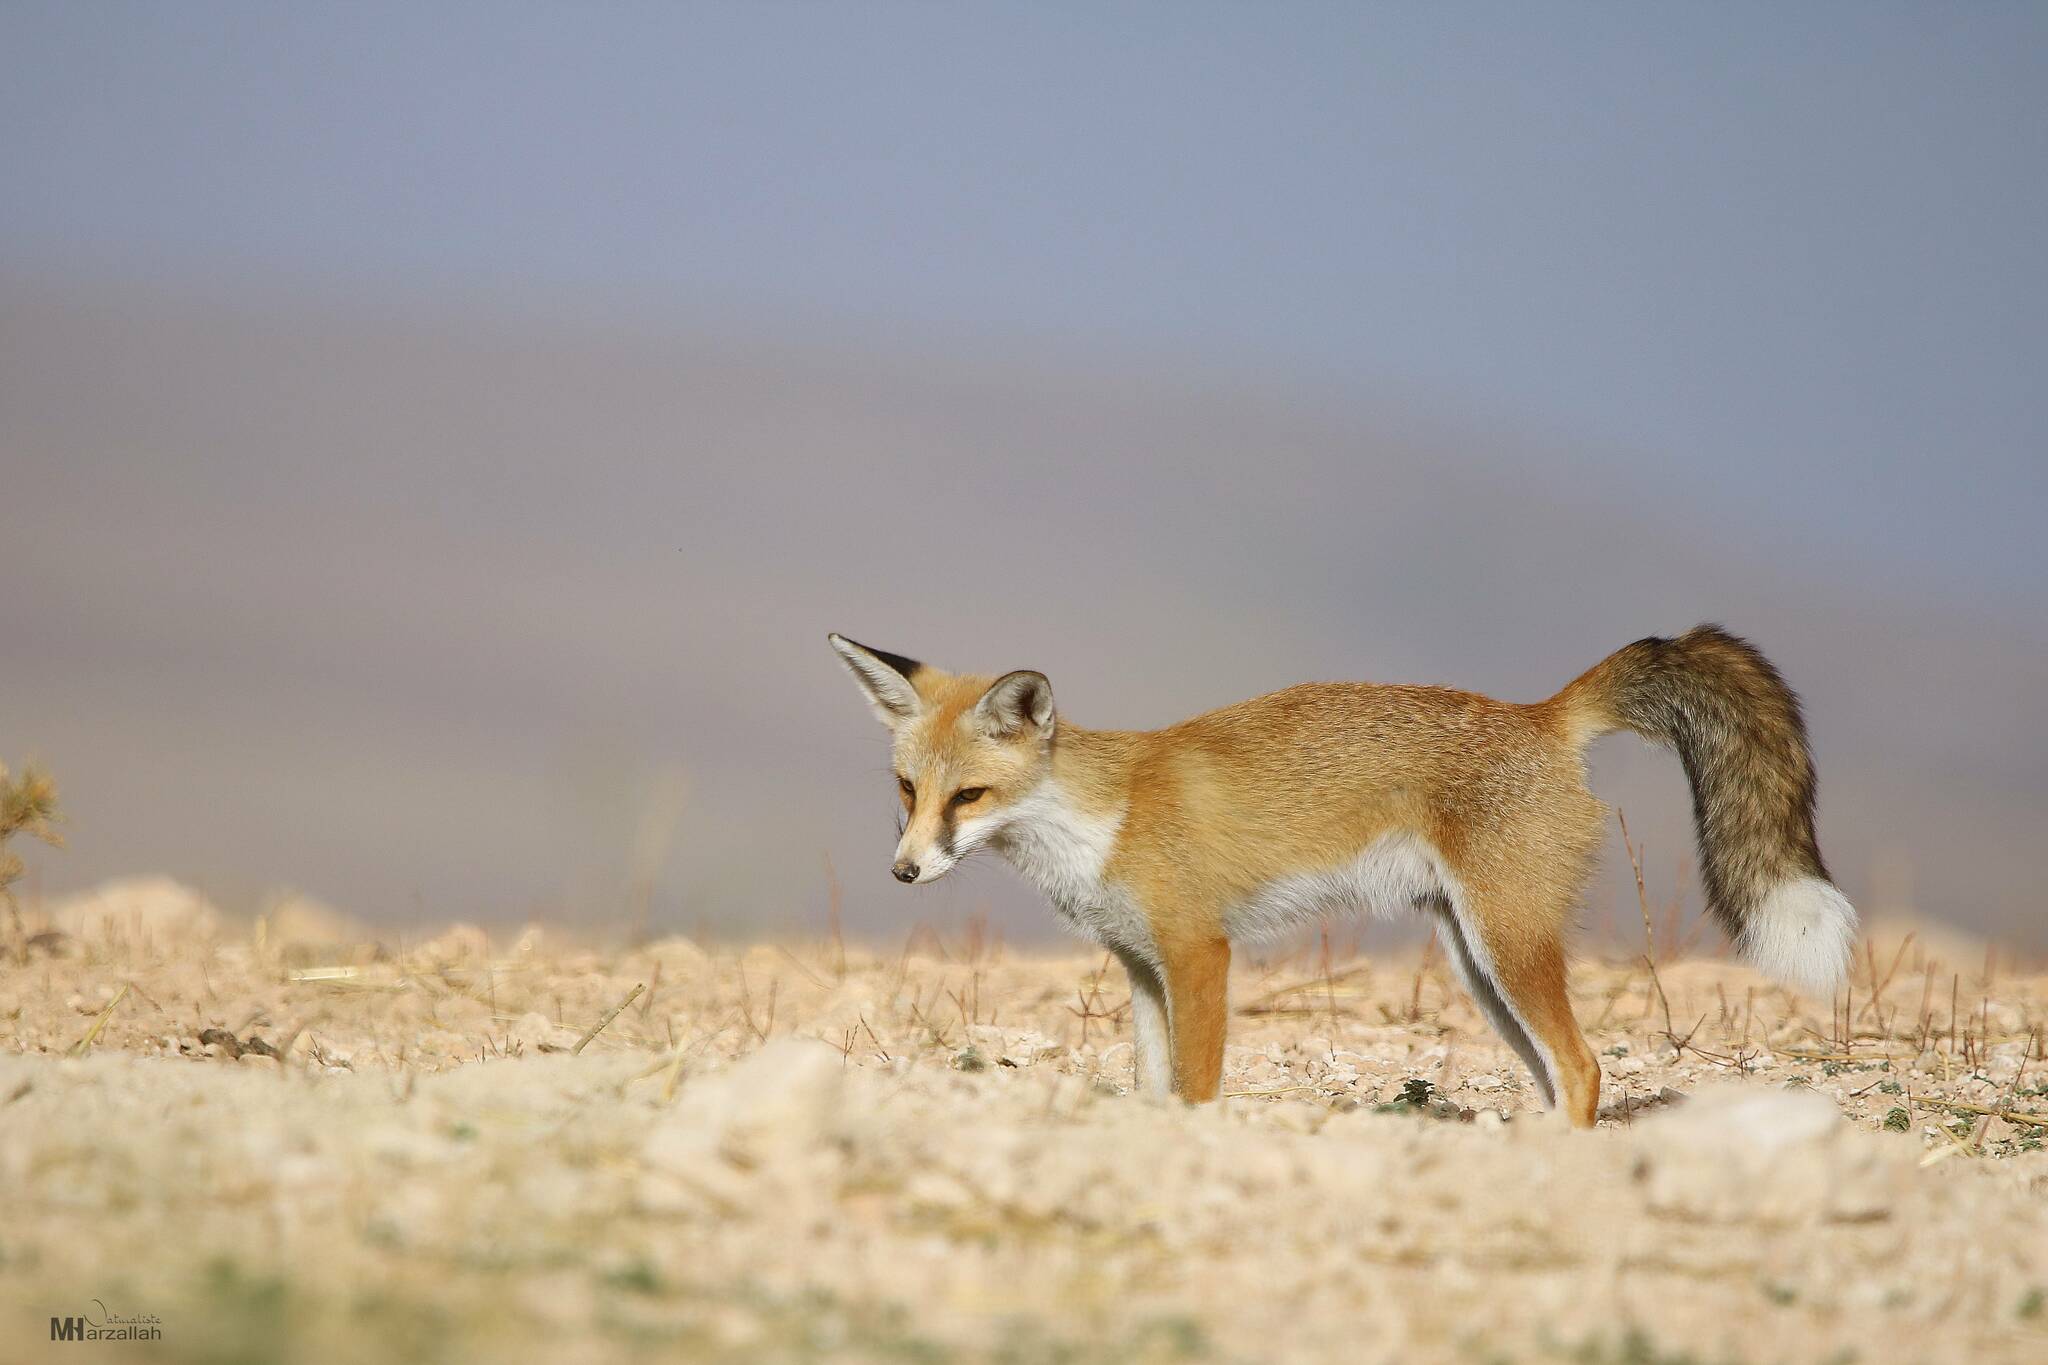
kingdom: Animalia
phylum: Chordata
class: Mammalia
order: Carnivora
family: Canidae
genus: Vulpes
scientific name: Vulpes vulpes
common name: Red fox
